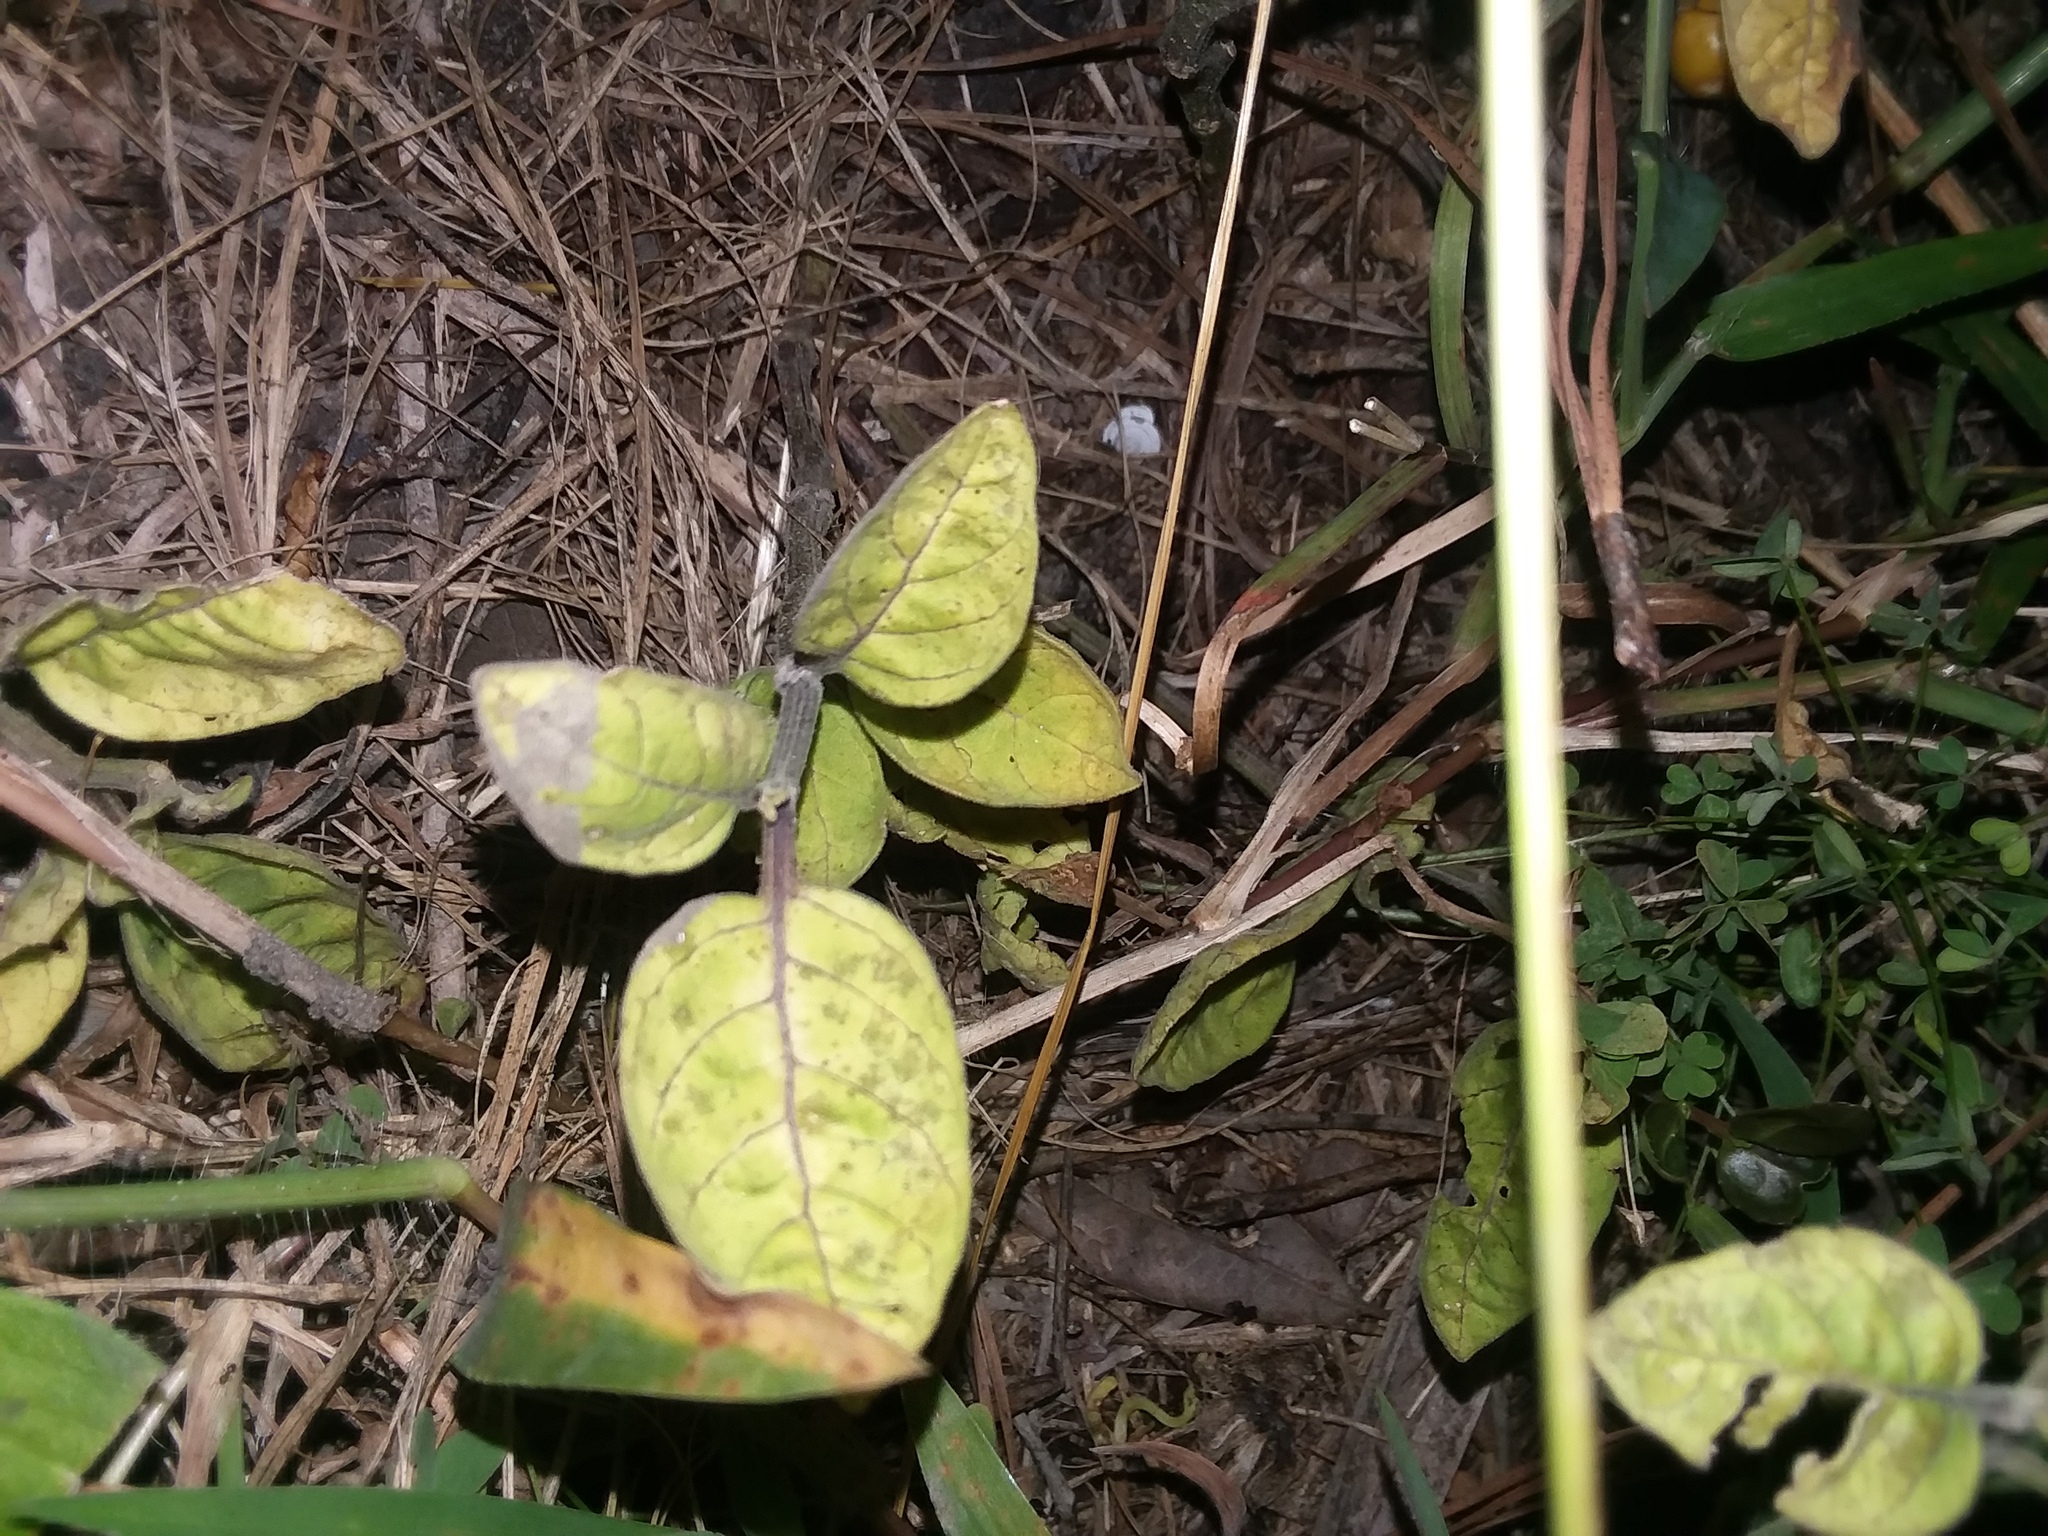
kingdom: Plantae
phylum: Tracheophyta
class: Magnoliopsida
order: Solanales
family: Solanaceae
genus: Physalis
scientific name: Physalis walteri
